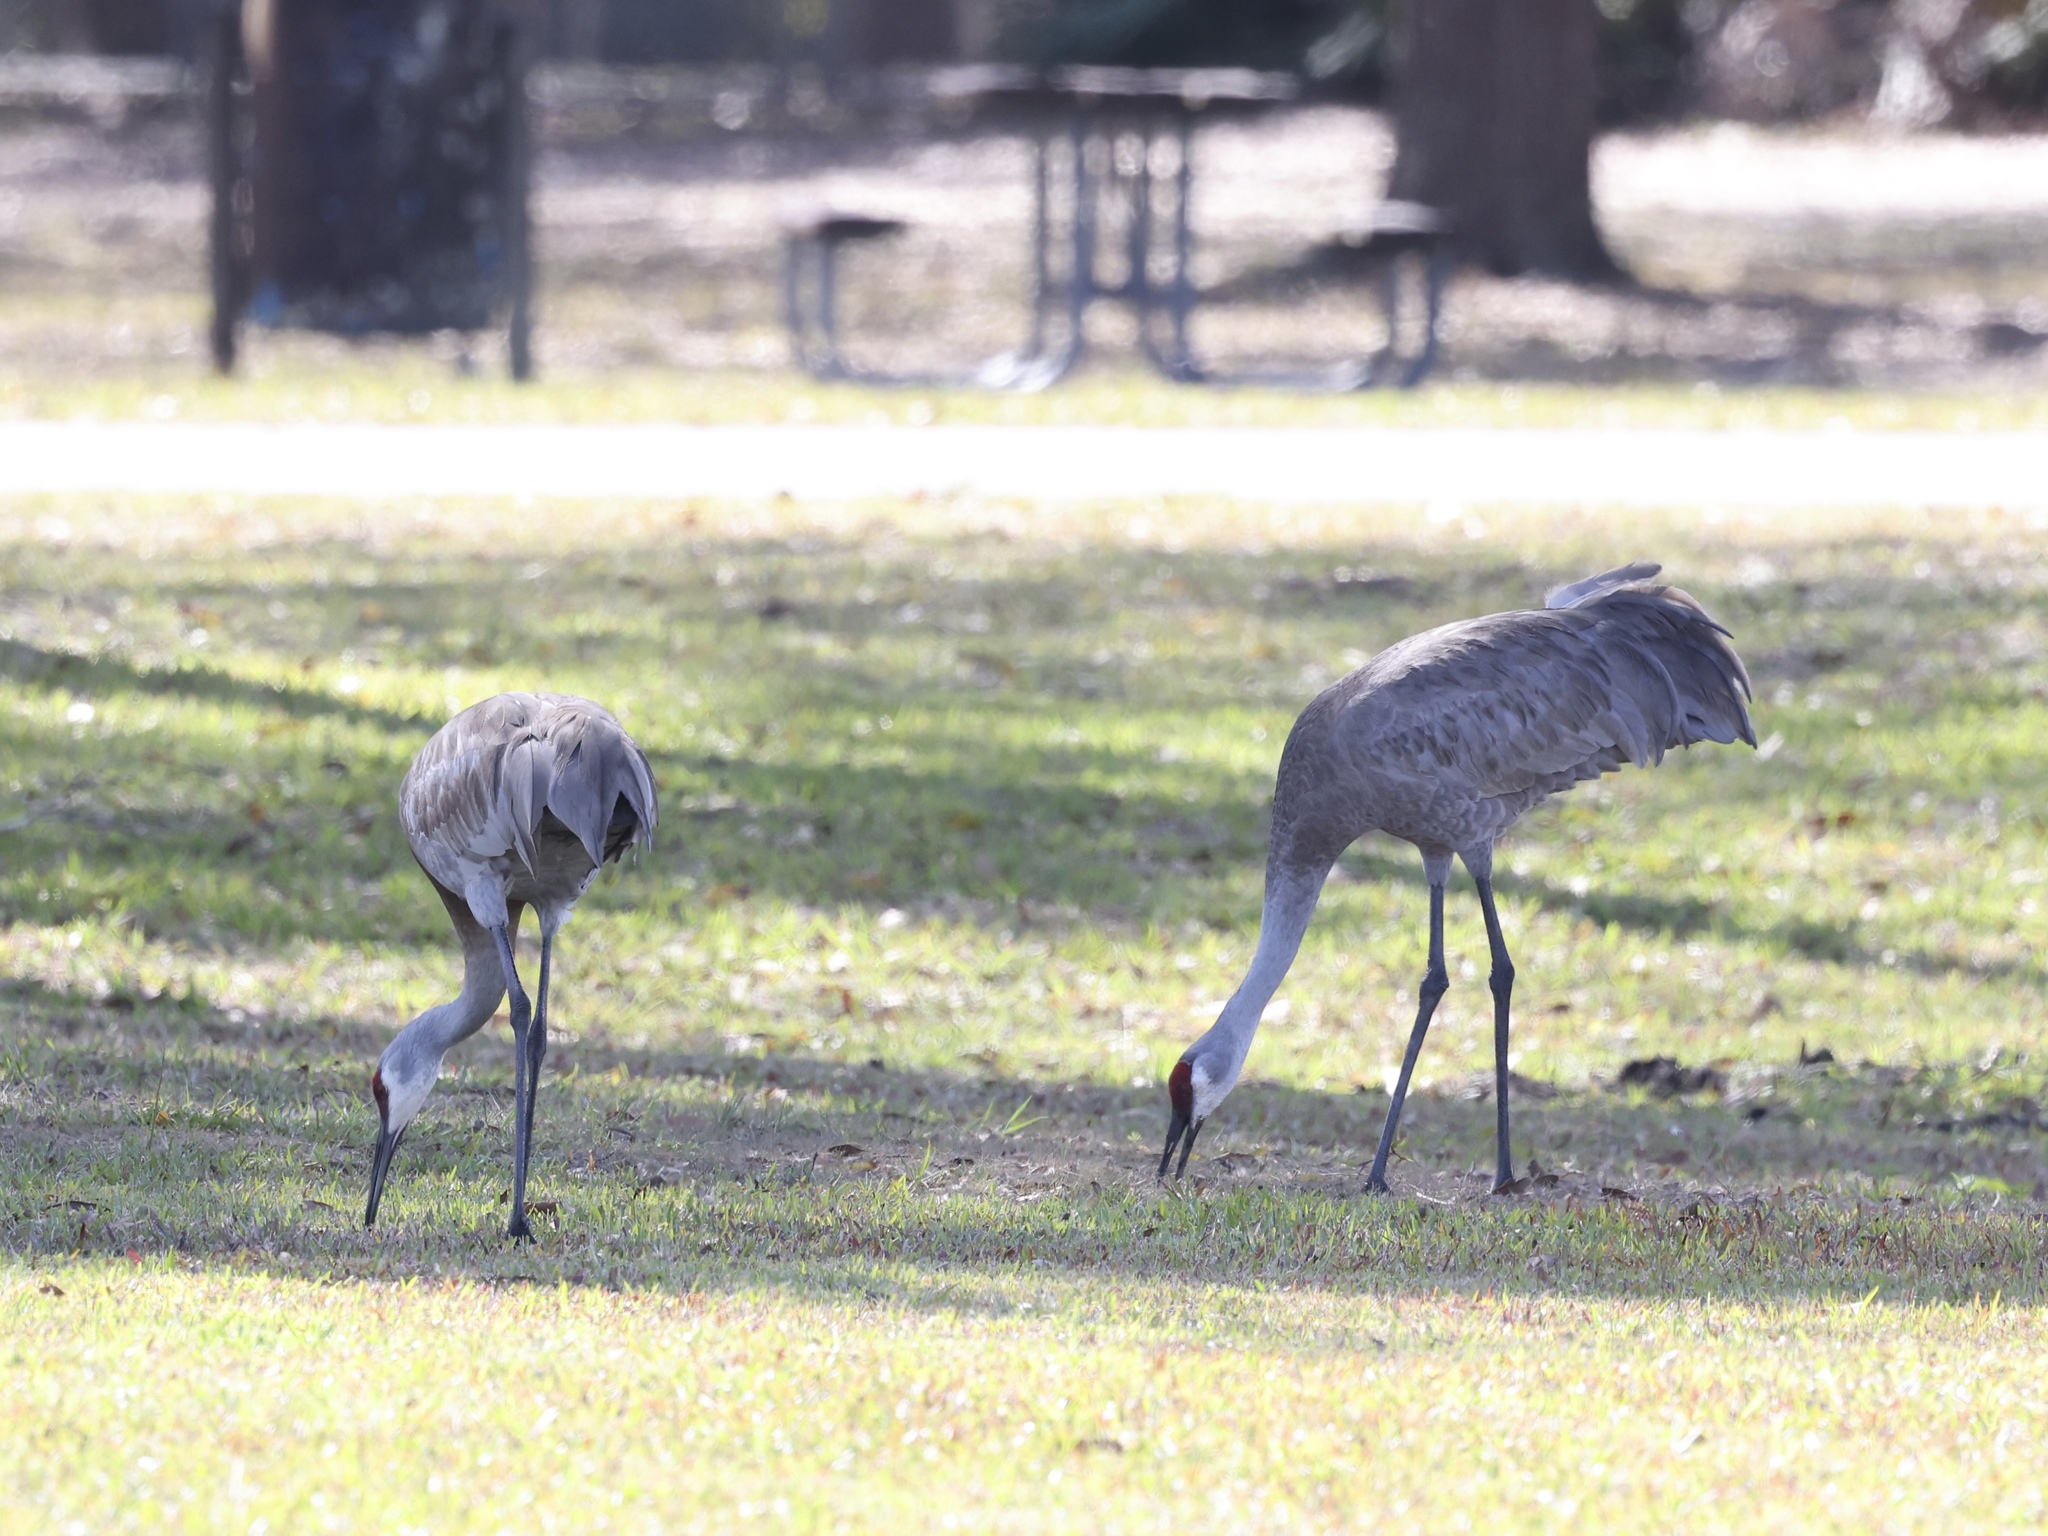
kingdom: Animalia
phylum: Chordata
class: Aves
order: Gruiformes
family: Gruidae
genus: Grus
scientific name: Grus canadensis
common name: Sandhill crane
